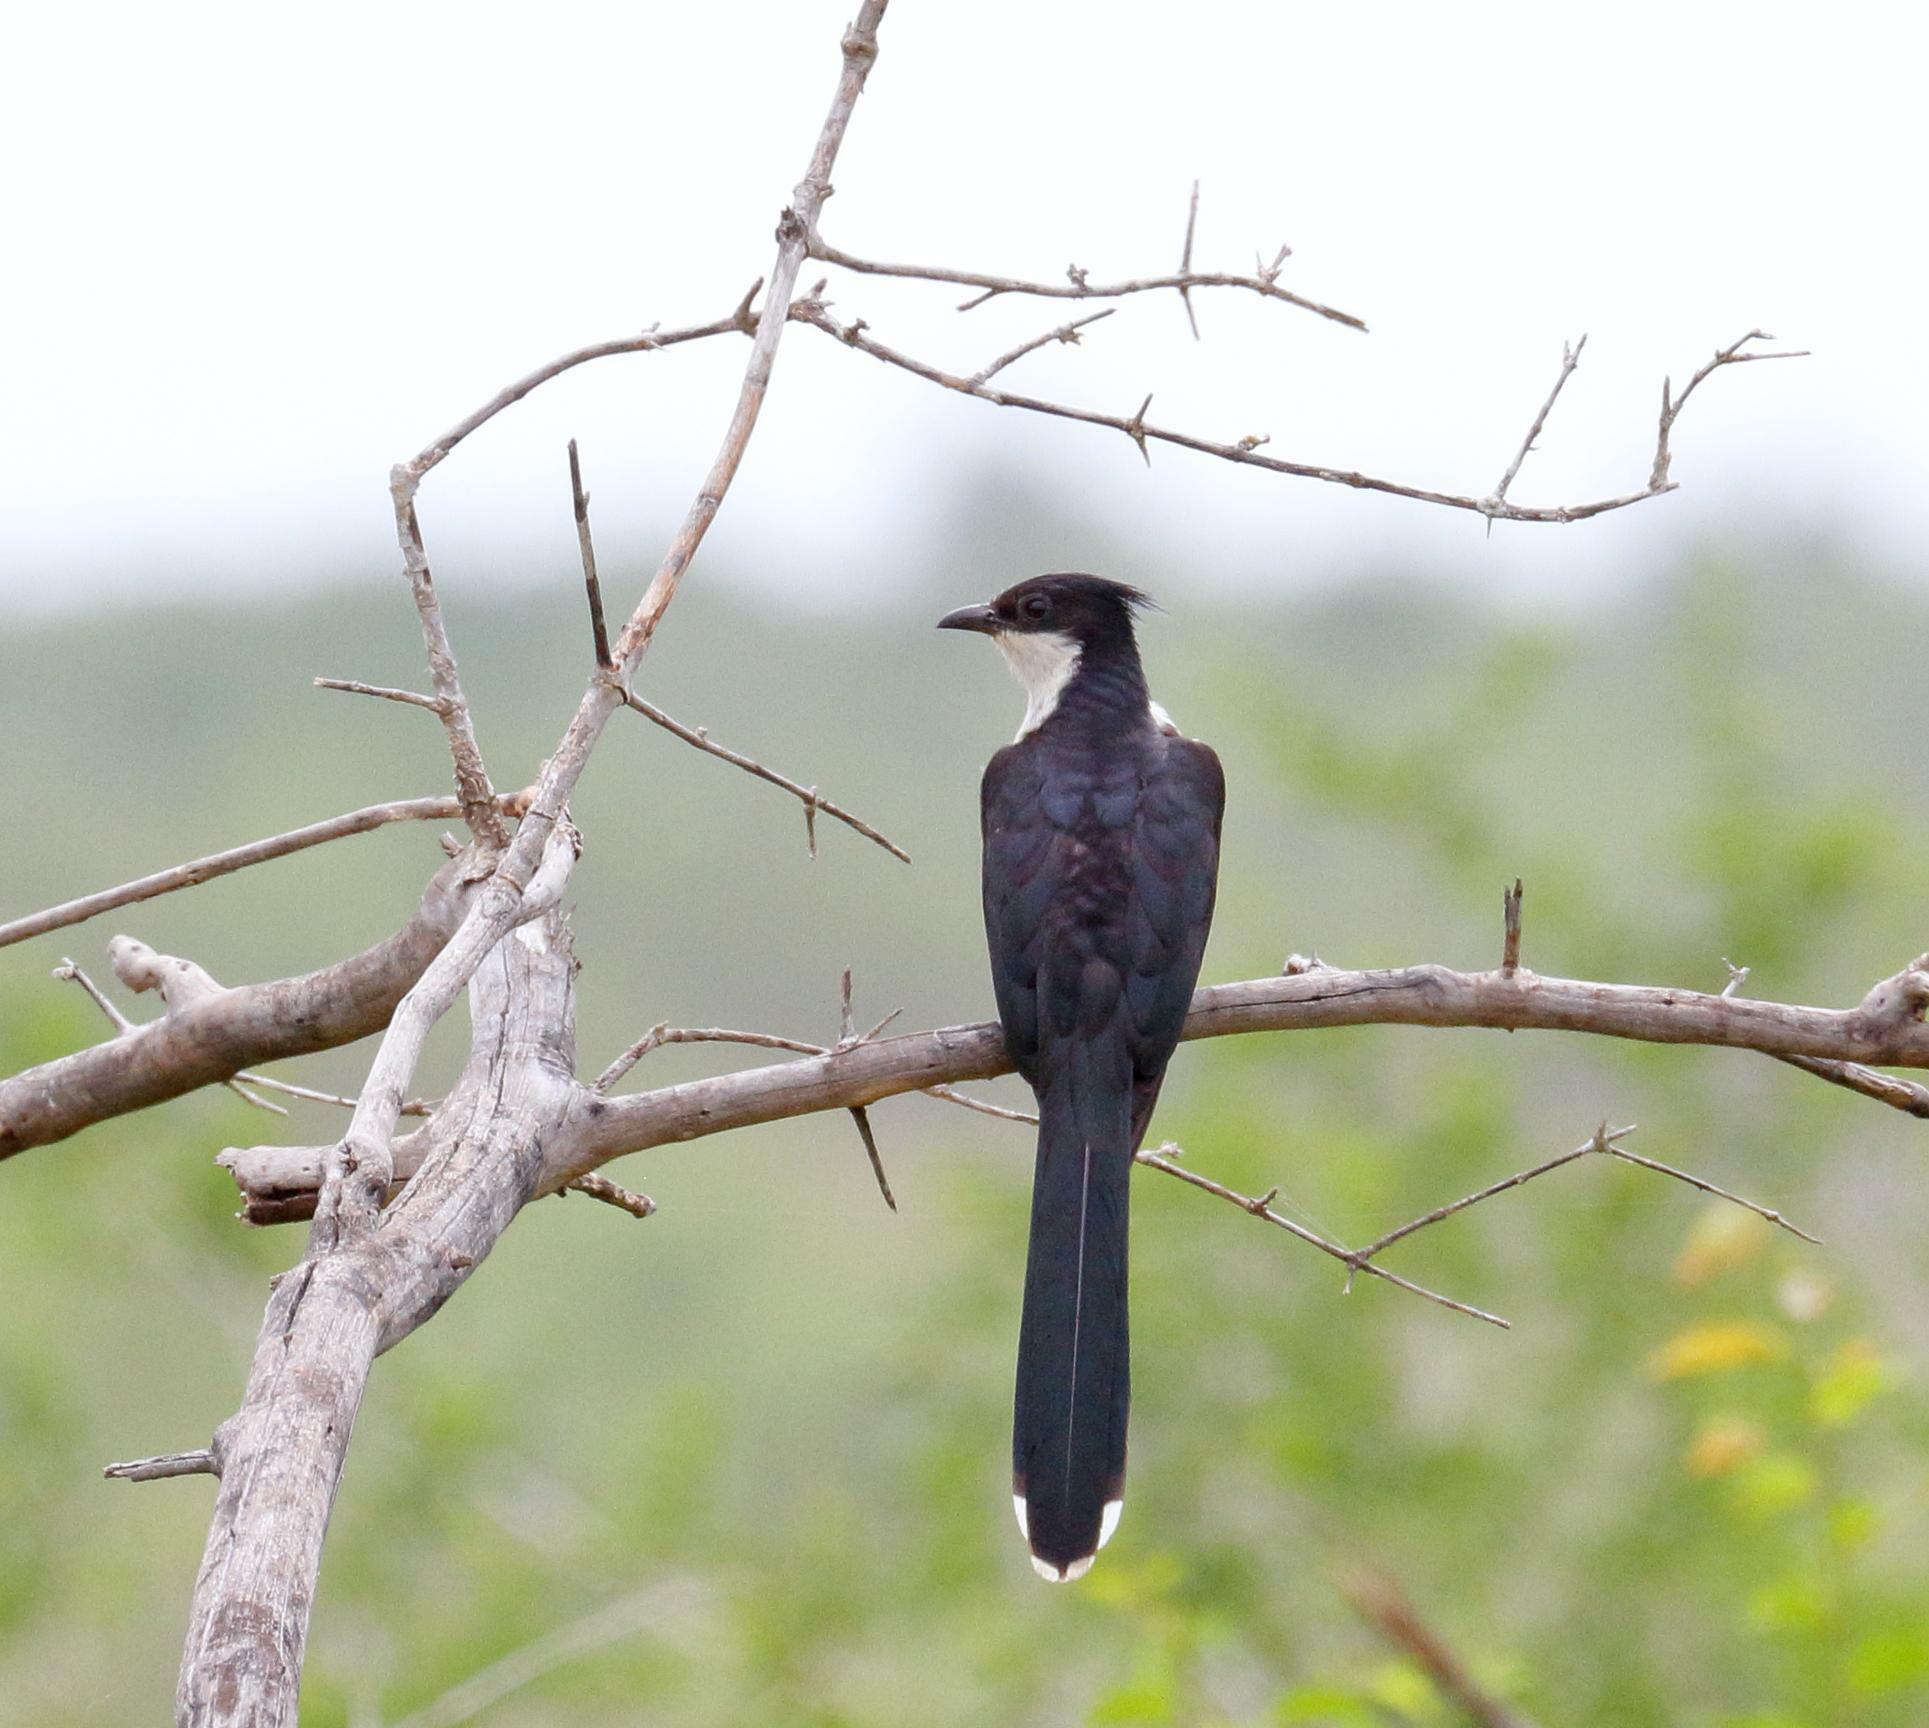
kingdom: Animalia
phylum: Chordata
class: Aves
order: Cuculiformes
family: Cuculidae
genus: Clamator
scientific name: Clamator jacobinus
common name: Jacobin cuckoo
